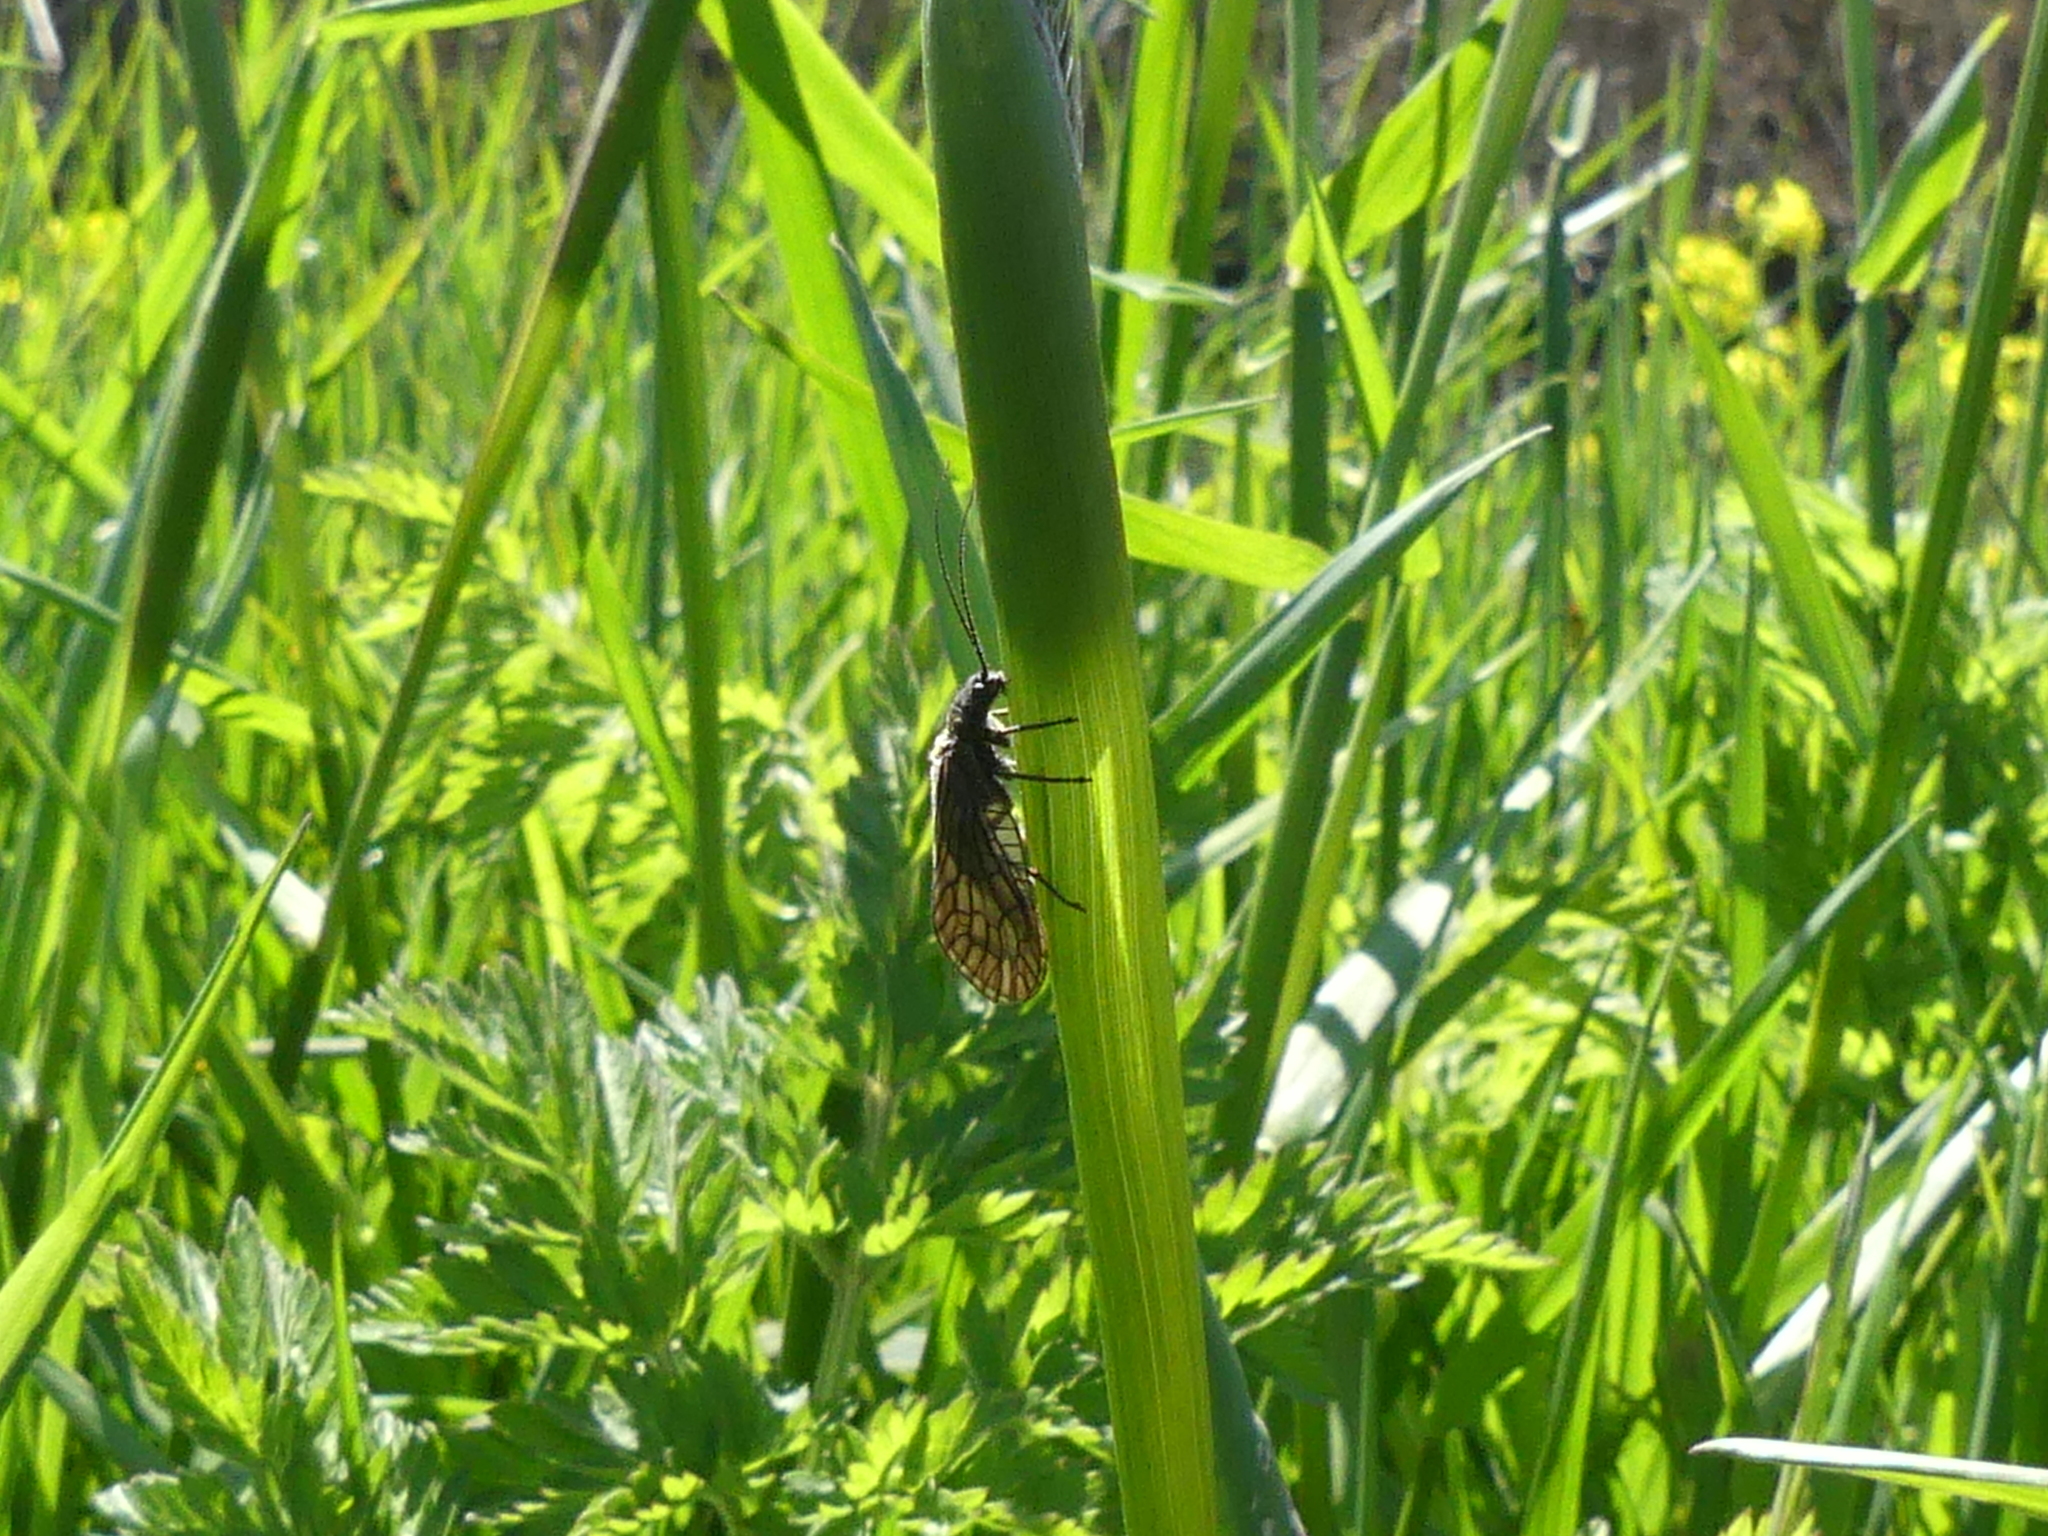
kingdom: Animalia
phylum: Arthropoda
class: Insecta
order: Megaloptera
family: Sialidae
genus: Sialis
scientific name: Sialis
